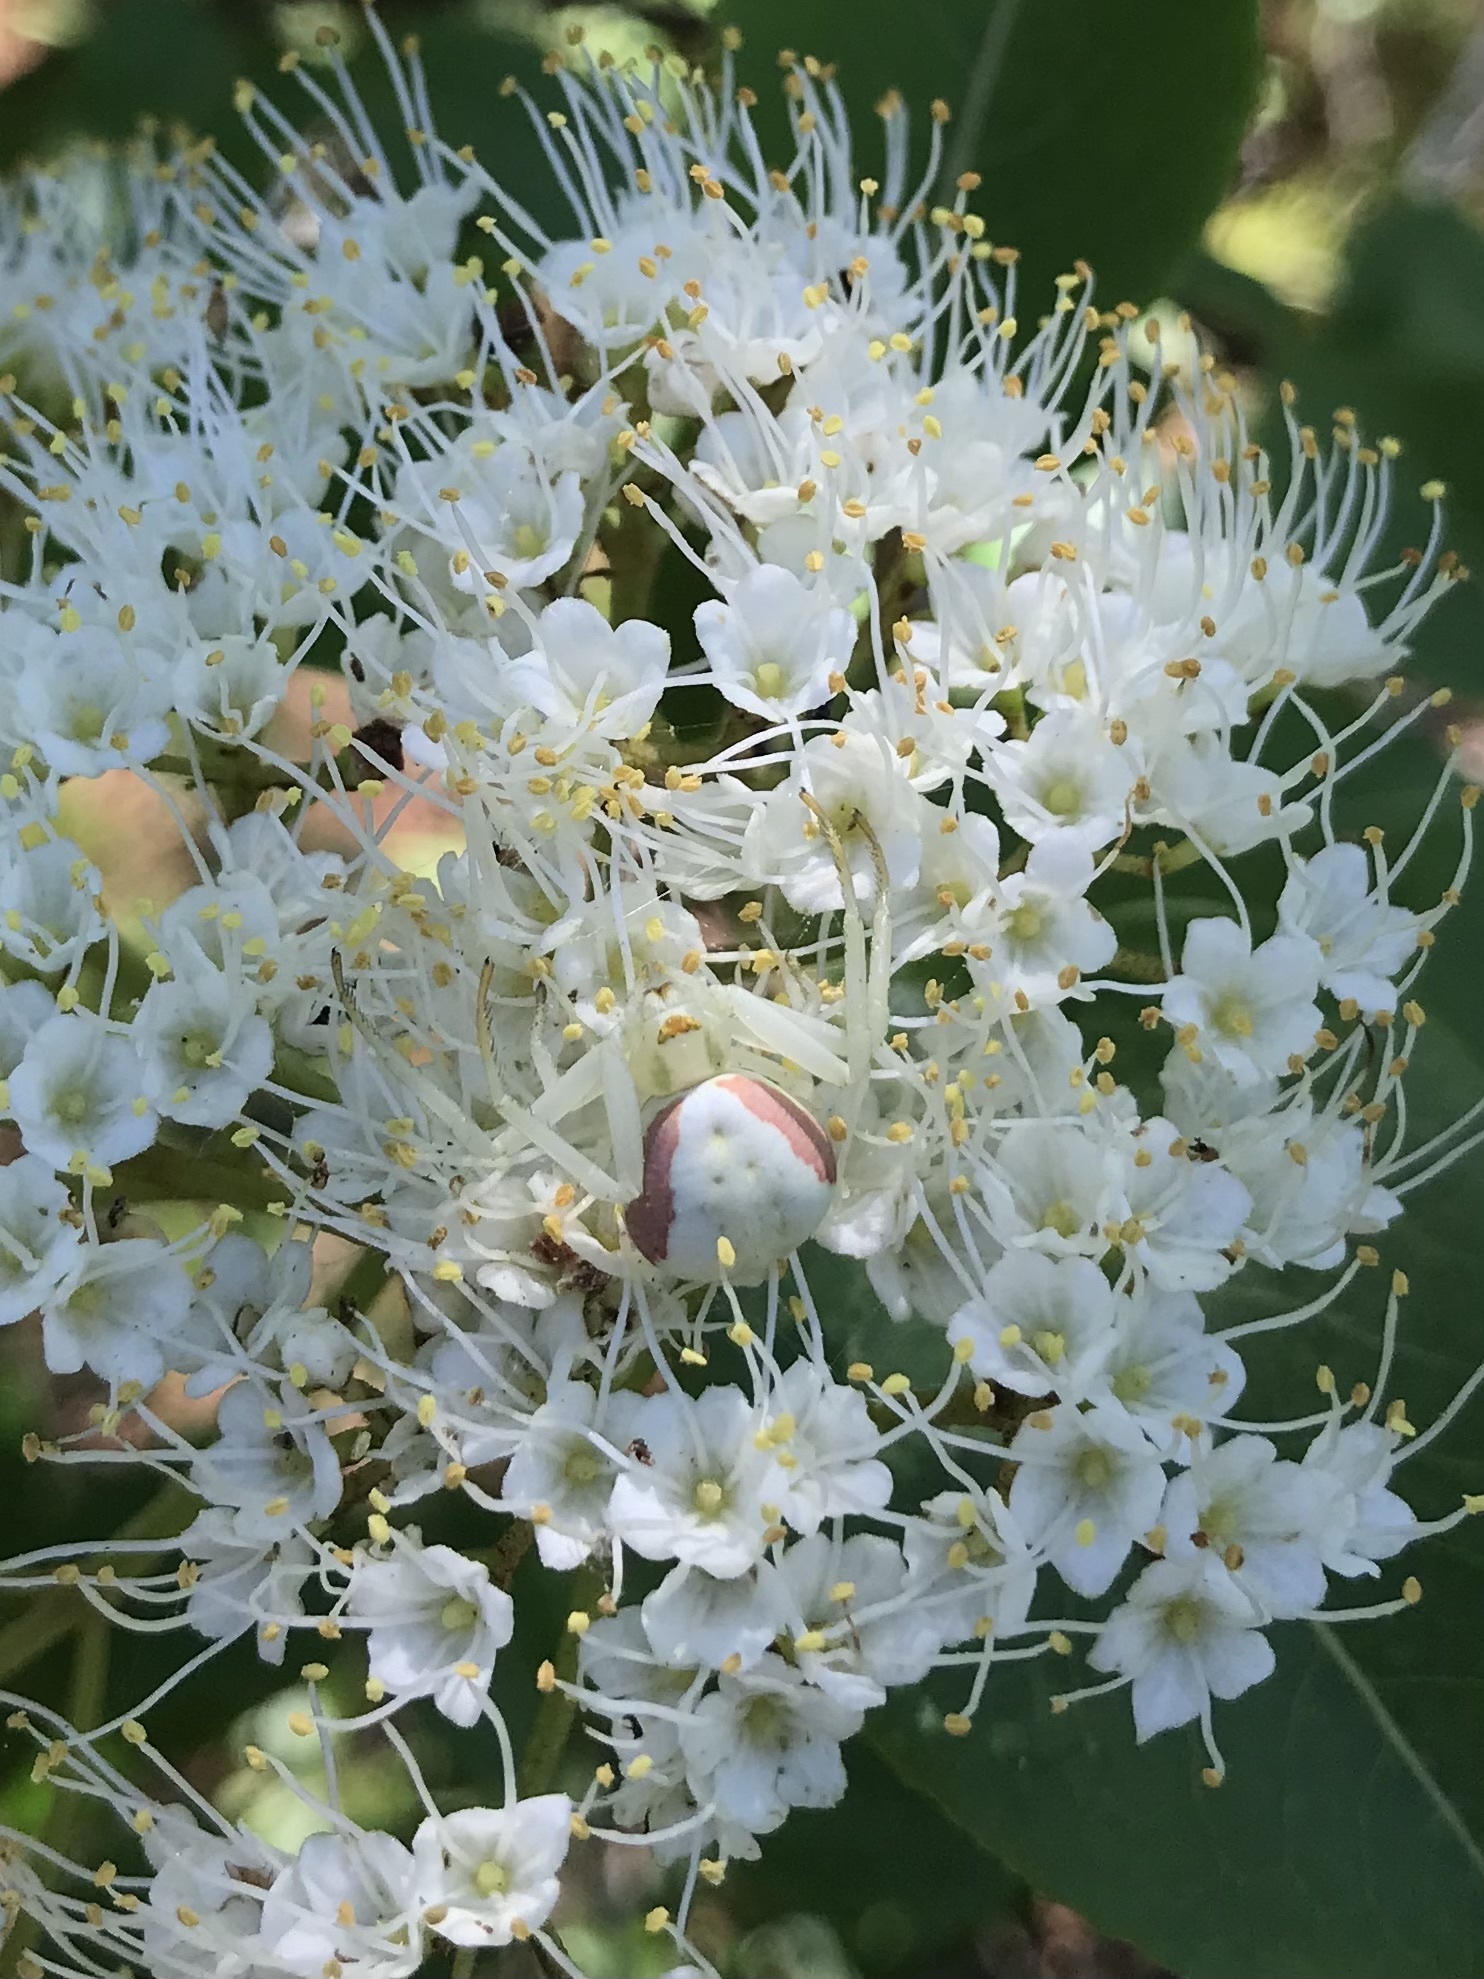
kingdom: Animalia
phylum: Arthropoda
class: Arachnida
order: Araneae
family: Thomisidae
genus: Misumena
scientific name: Misumena vatia
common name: Goldenrod crab spider
